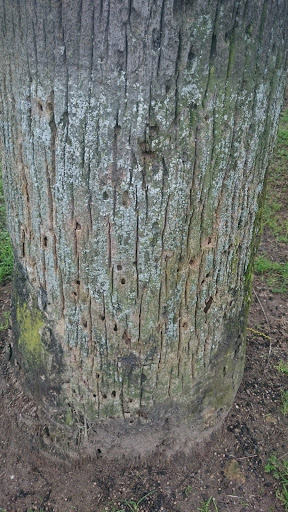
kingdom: Animalia
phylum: Arthropoda
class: Insecta
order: Coleoptera
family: Dryophthoridae
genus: Rhynchophorus
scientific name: Rhynchophorus ferrugineus
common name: Red palm weevil
